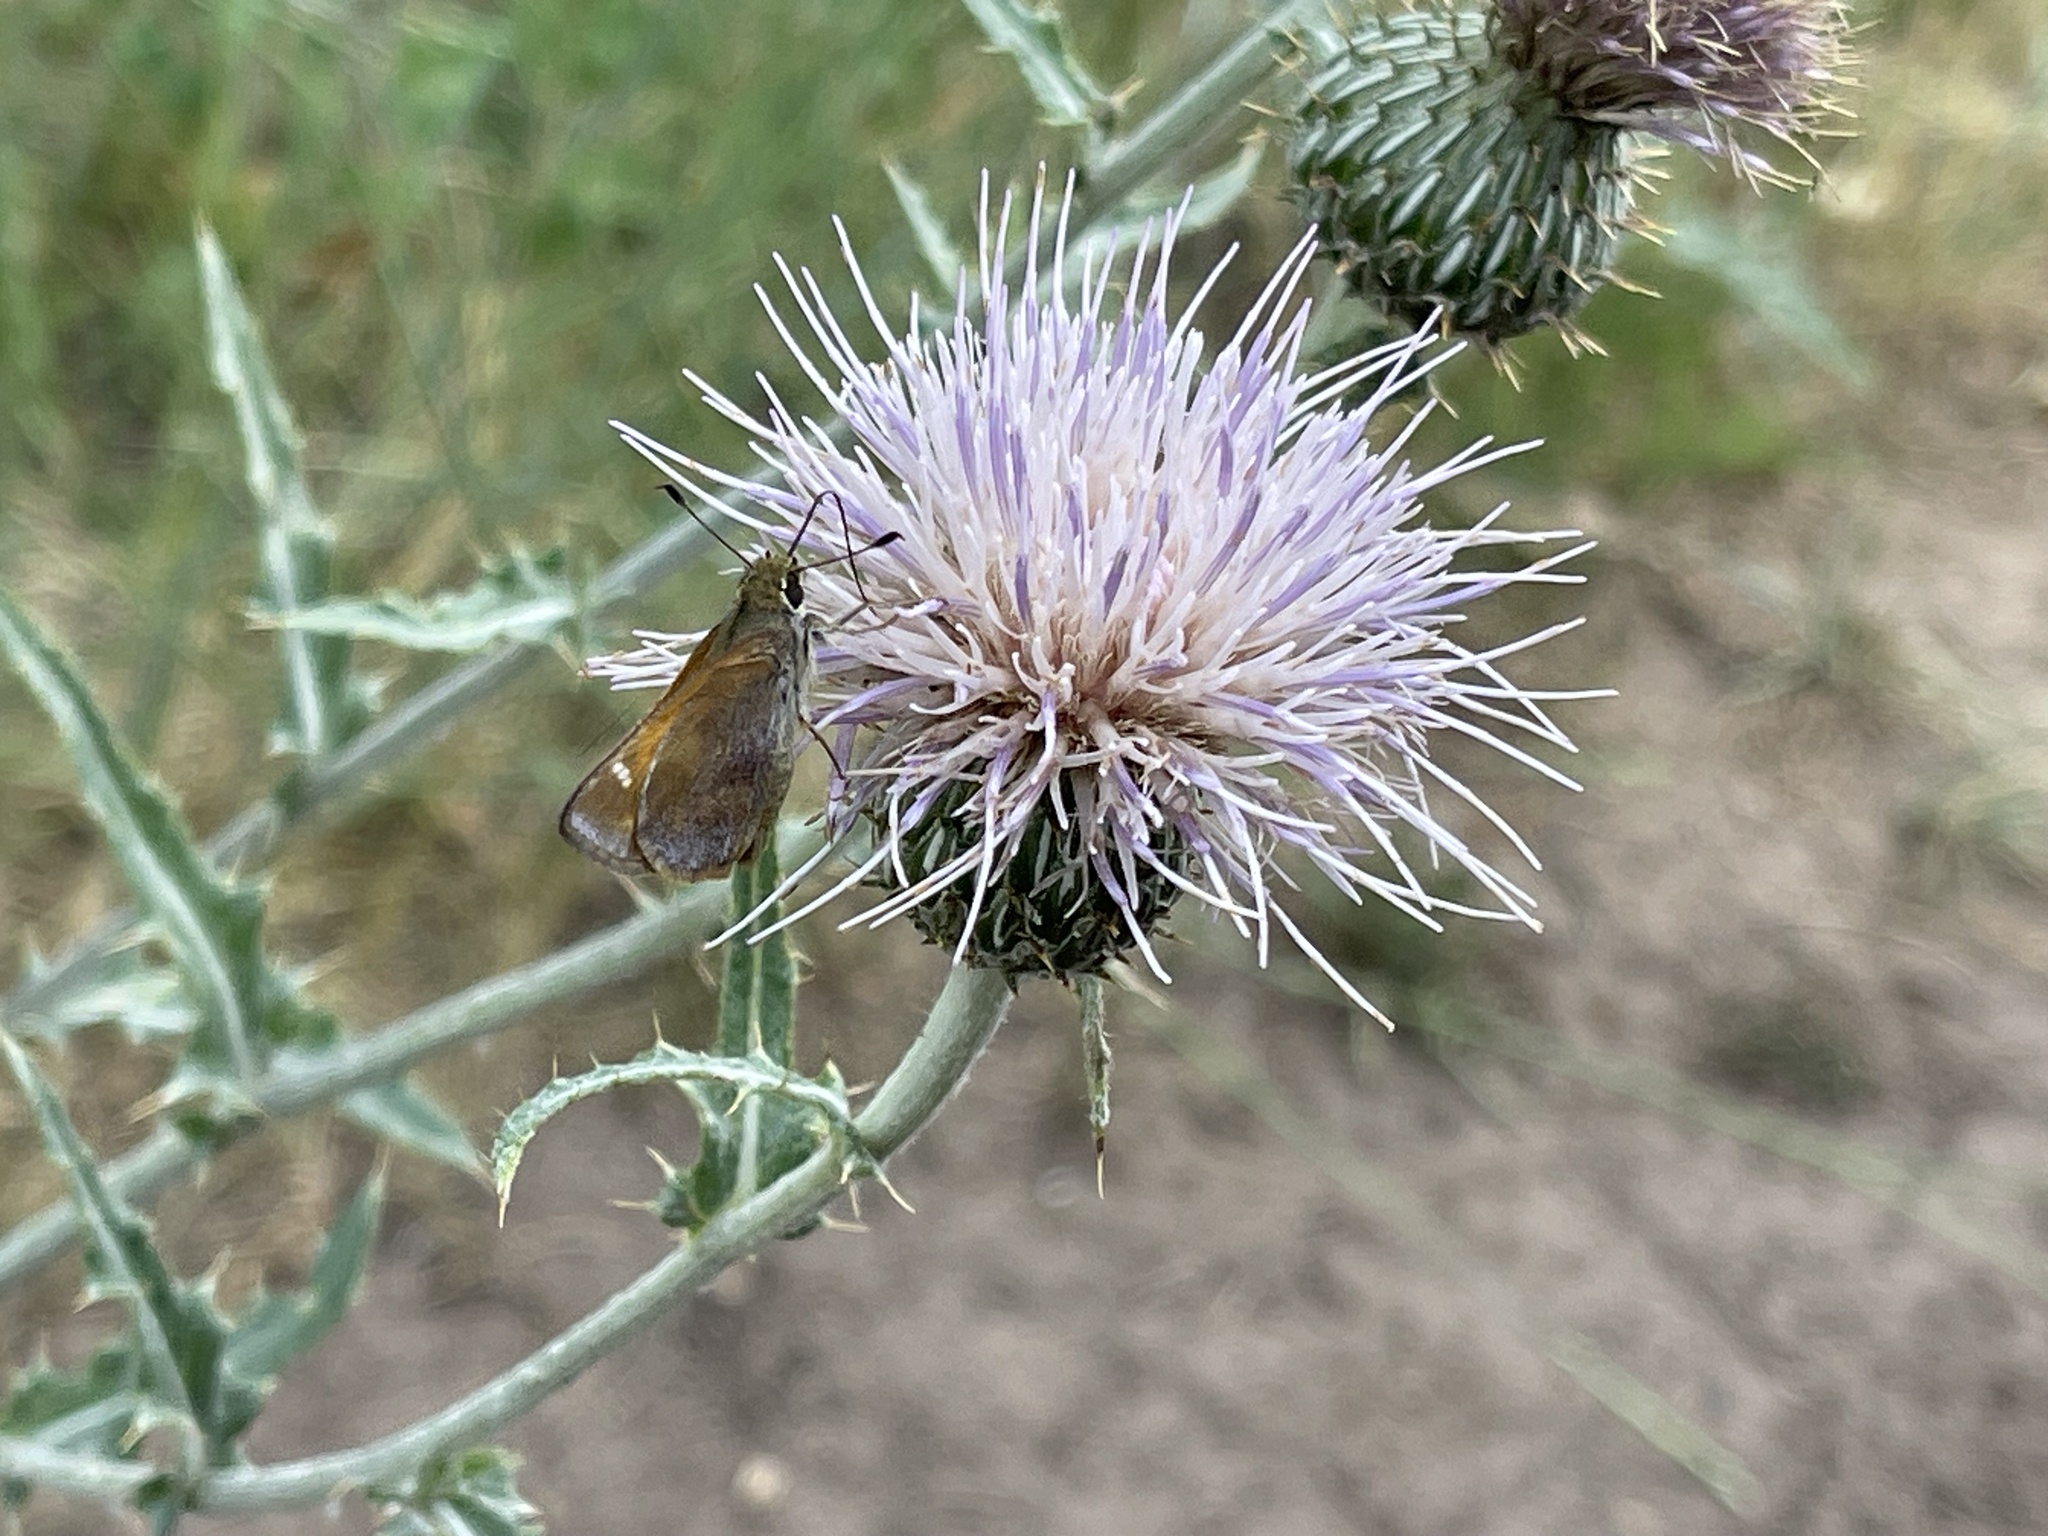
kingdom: Animalia
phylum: Arthropoda
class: Insecta
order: Lepidoptera
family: Hesperiidae
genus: Lon
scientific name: Lon taxiles
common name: Taxiles skipper
